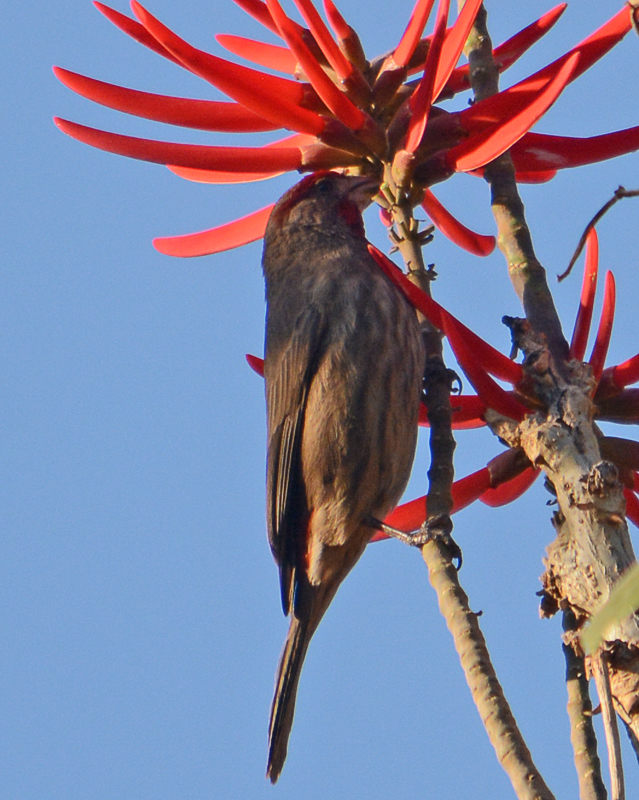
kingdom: Animalia
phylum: Chordata
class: Aves
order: Passeriformes
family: Fringillidae
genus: Haemorhous
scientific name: Haemorhous mexicanus
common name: House finch
